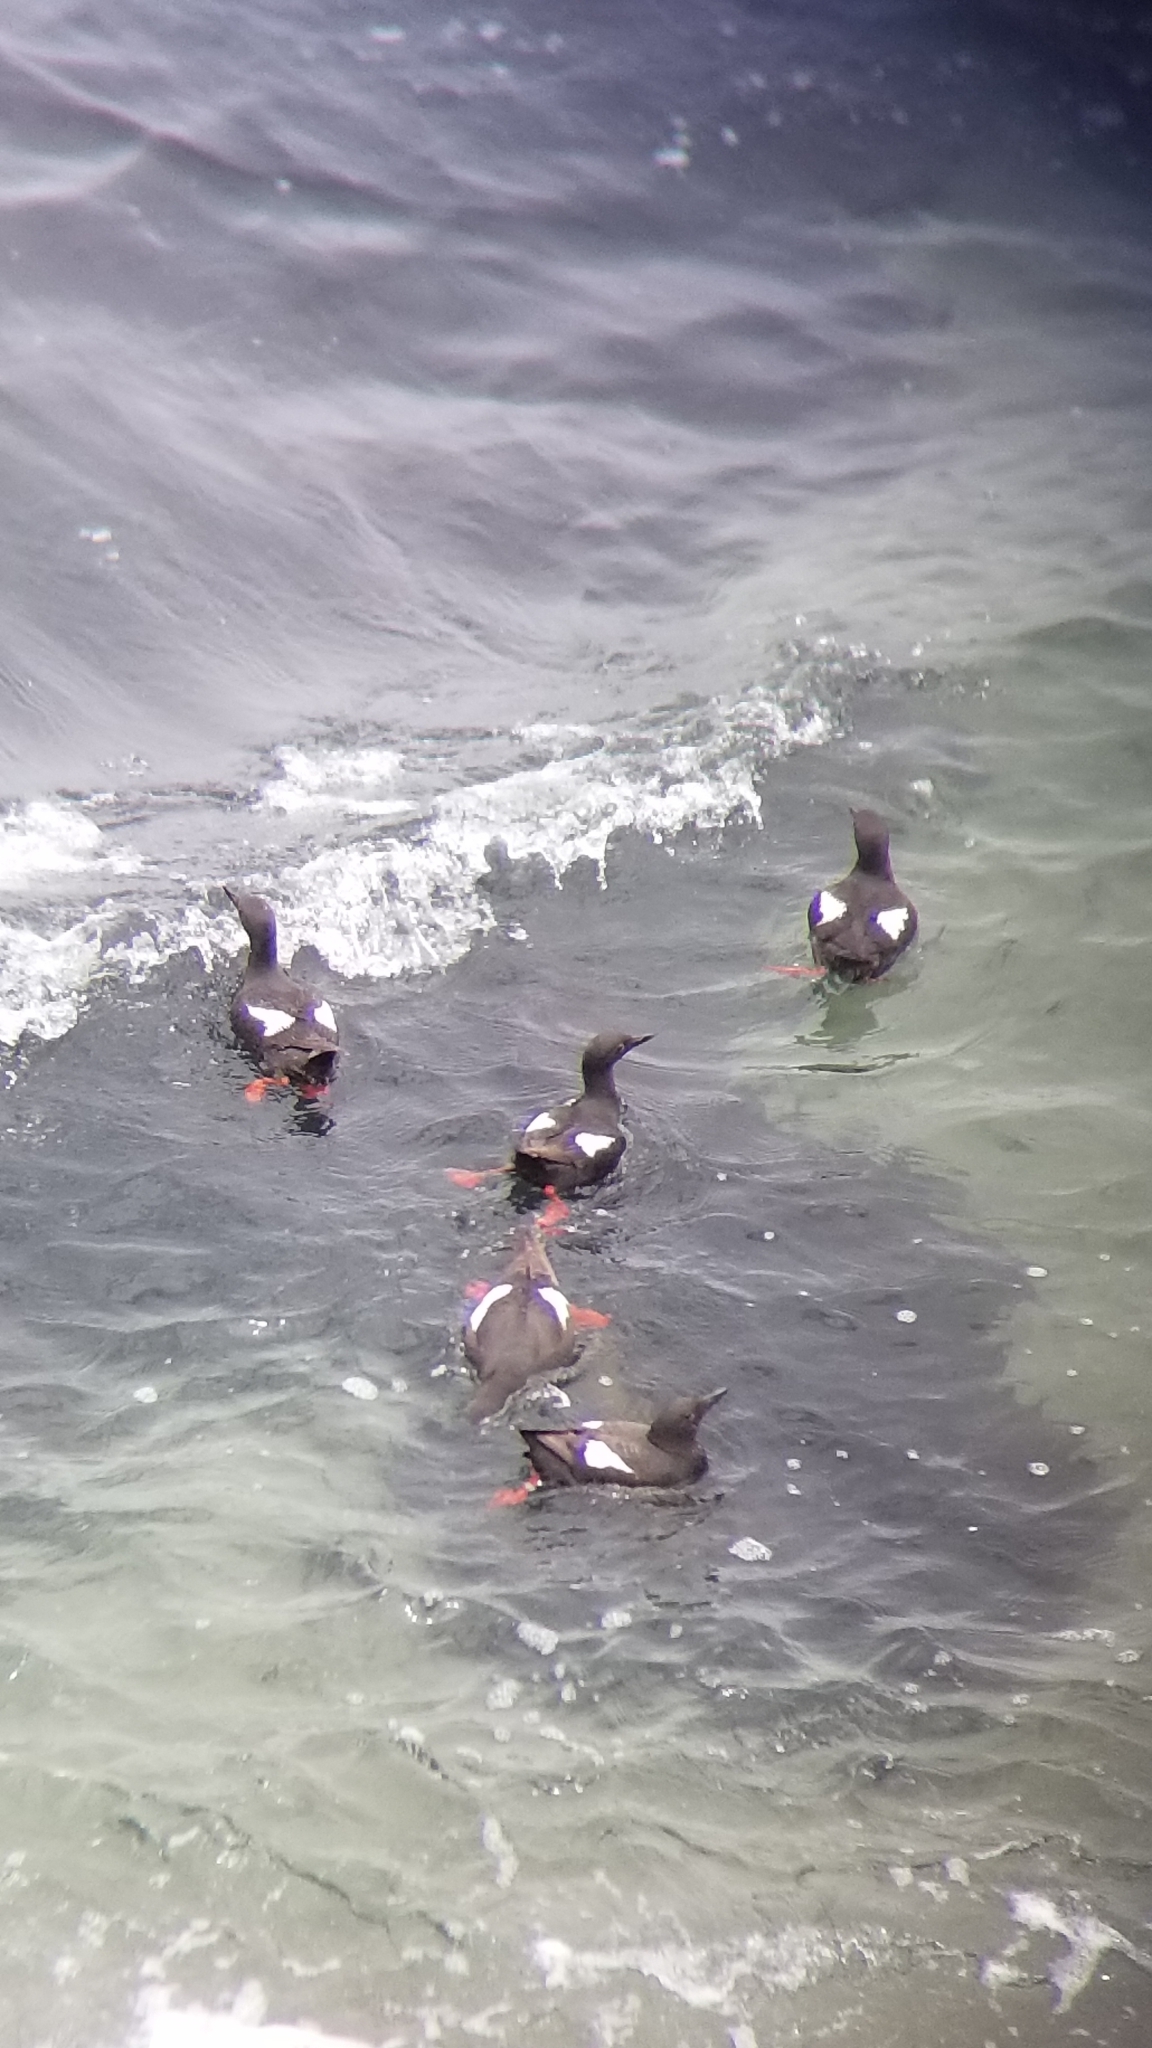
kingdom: Animalia
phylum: Chordata
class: Aves
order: Charadriiformes
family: Alcidae
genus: Cepphus
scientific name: Cepphus columba
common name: Pigeon guillemot
